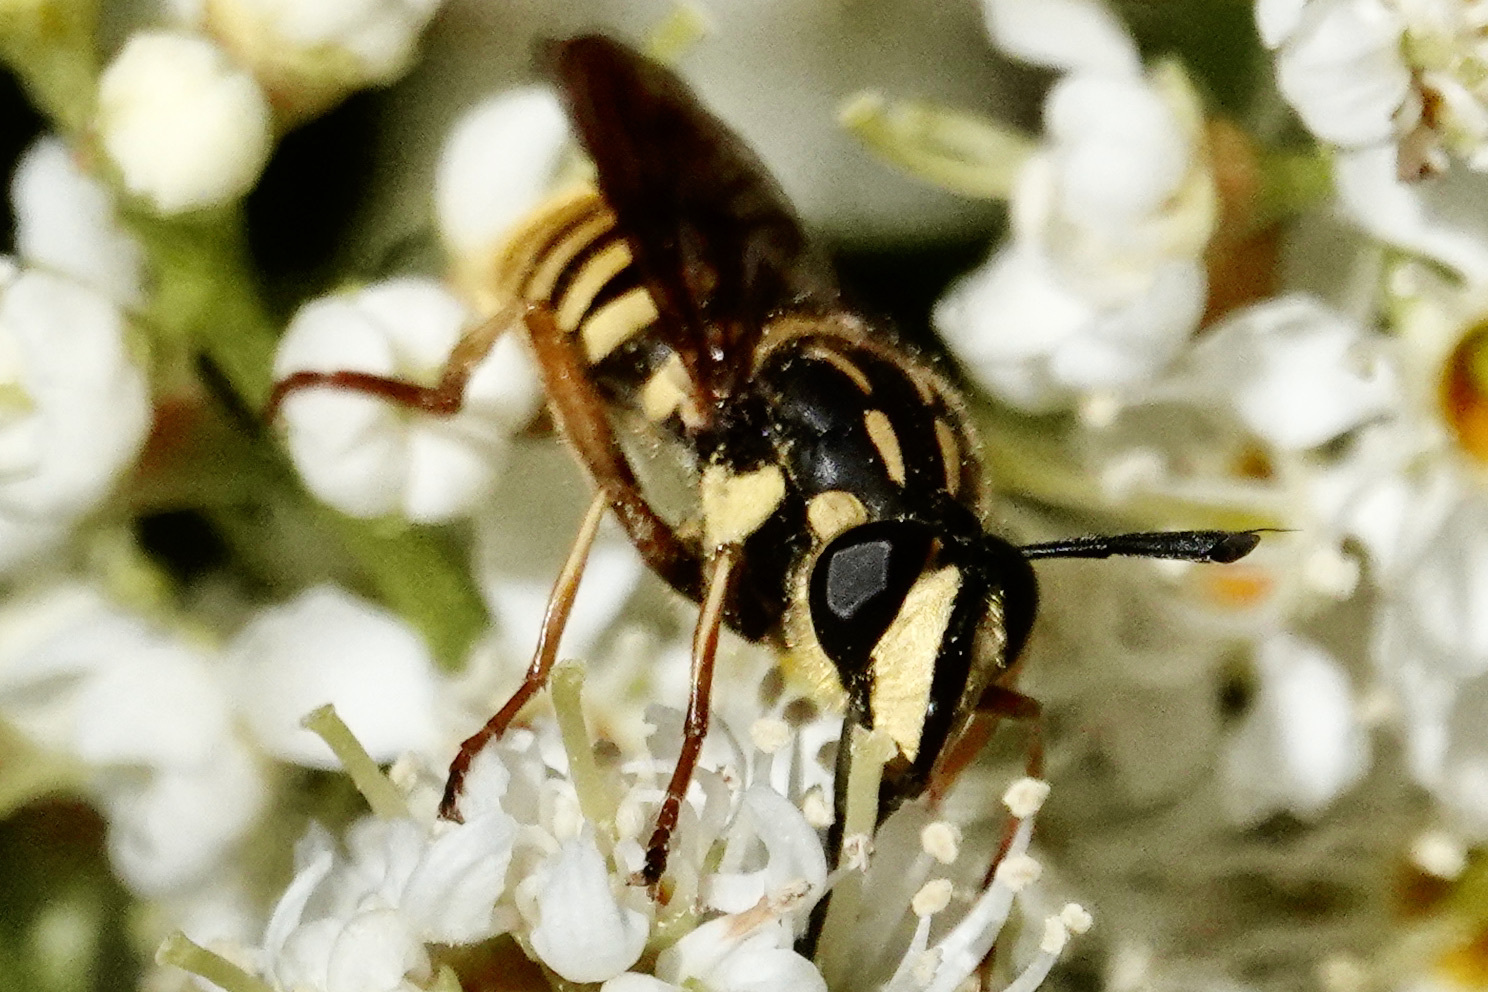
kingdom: Animalia
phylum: Arthropoda
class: Insecta
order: Diptera
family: Syrphidae
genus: Sphecomyia
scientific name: Sphecomyia vittata
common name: Long-horned yellowjacket fly
